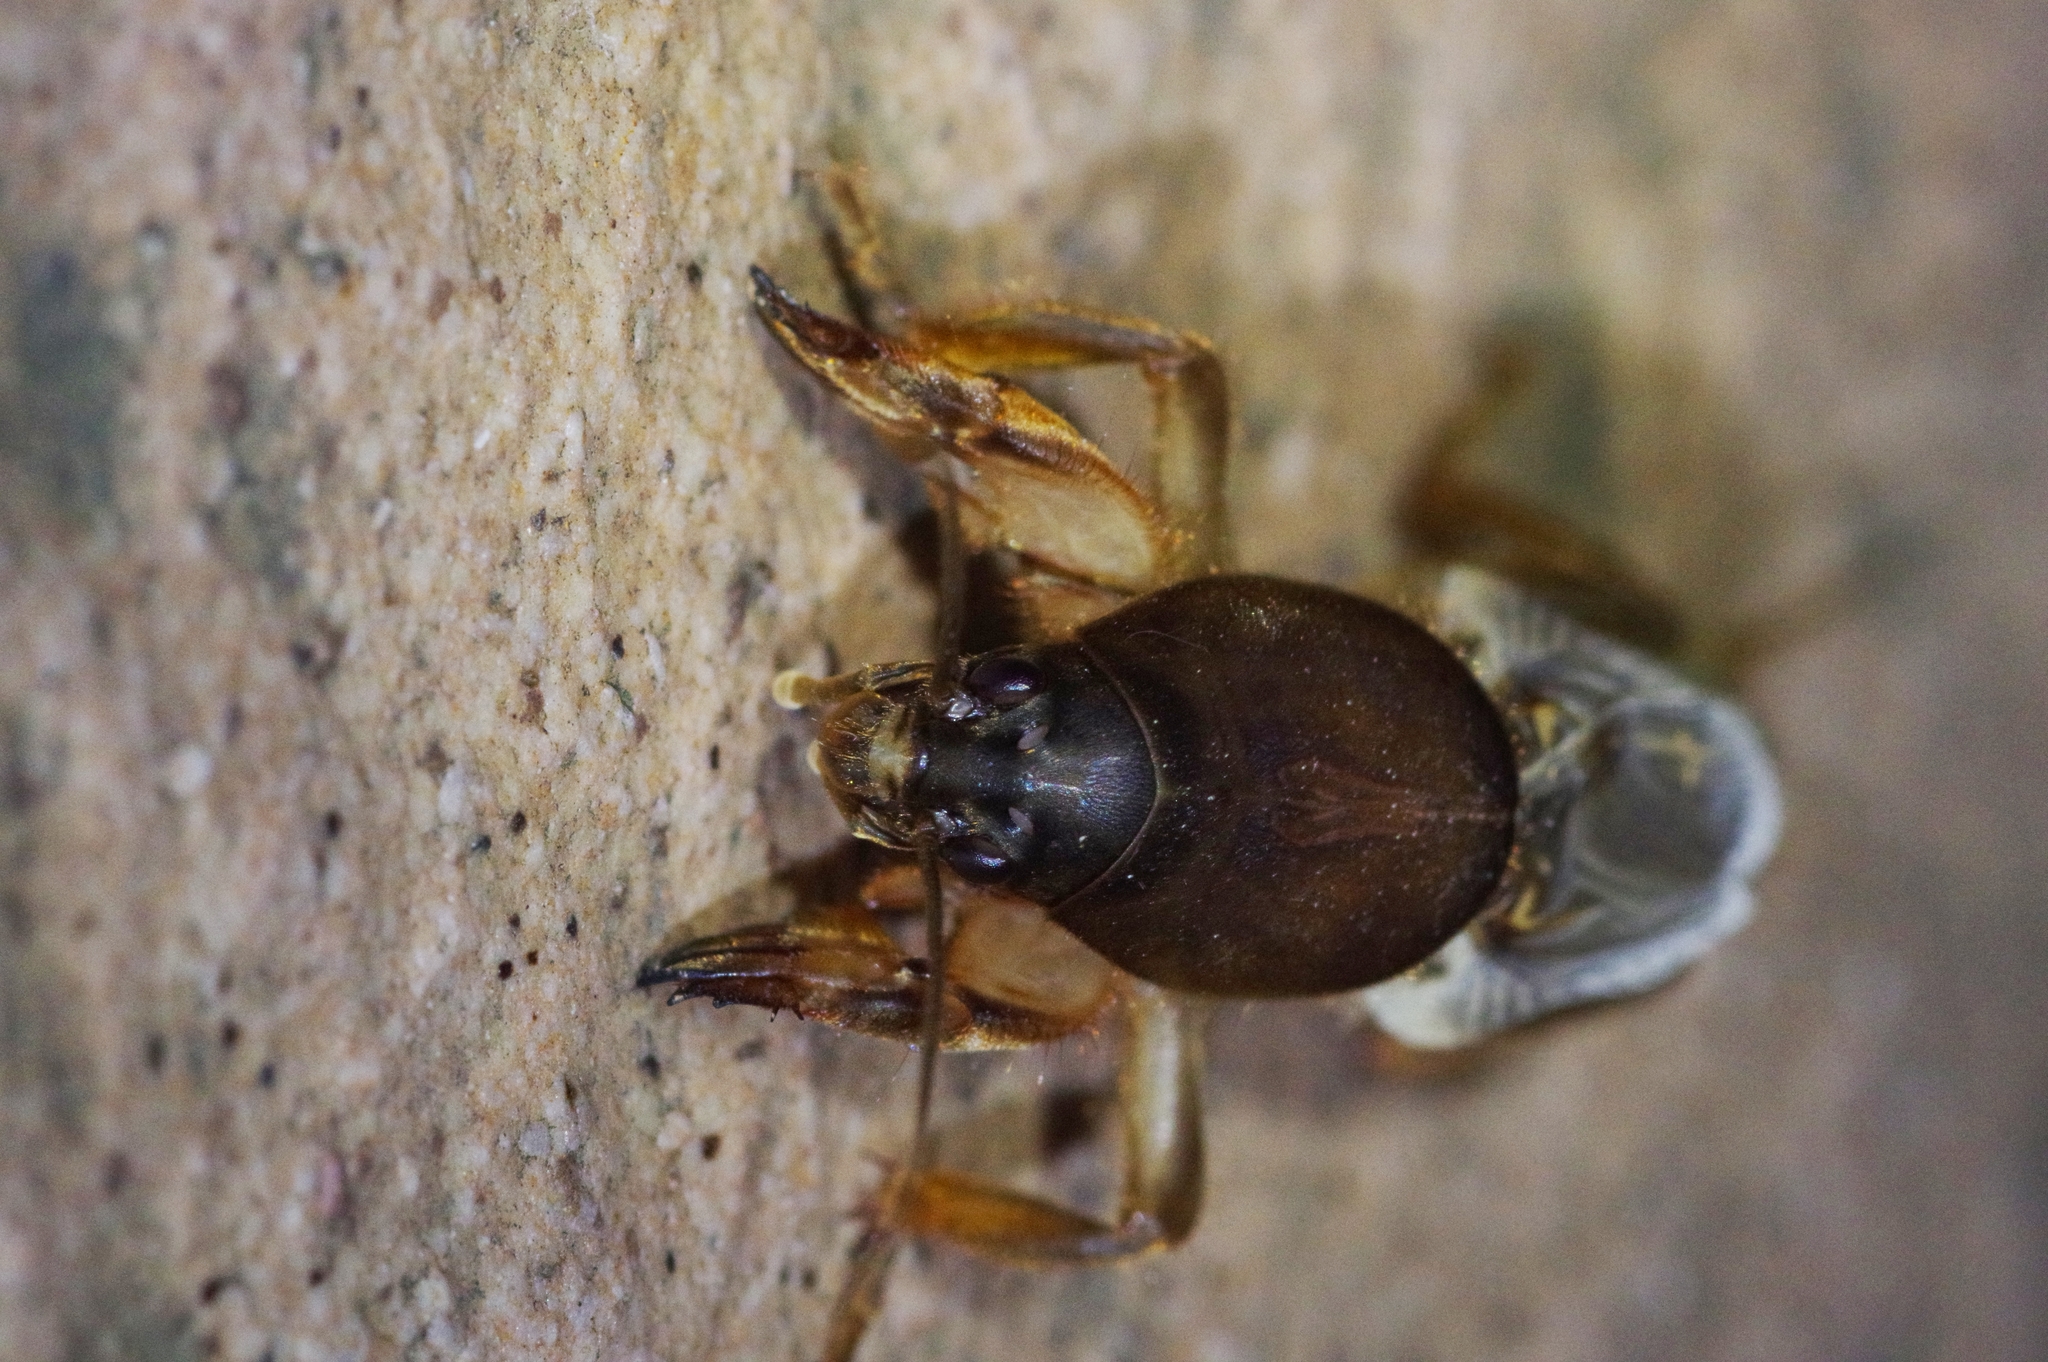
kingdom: Animalia
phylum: Arthropoda
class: Insecta
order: Orthoptera
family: Gryllotalpidae
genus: Gryllotalpa
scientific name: Gryllotalpa orientalis
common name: Grasshopper
